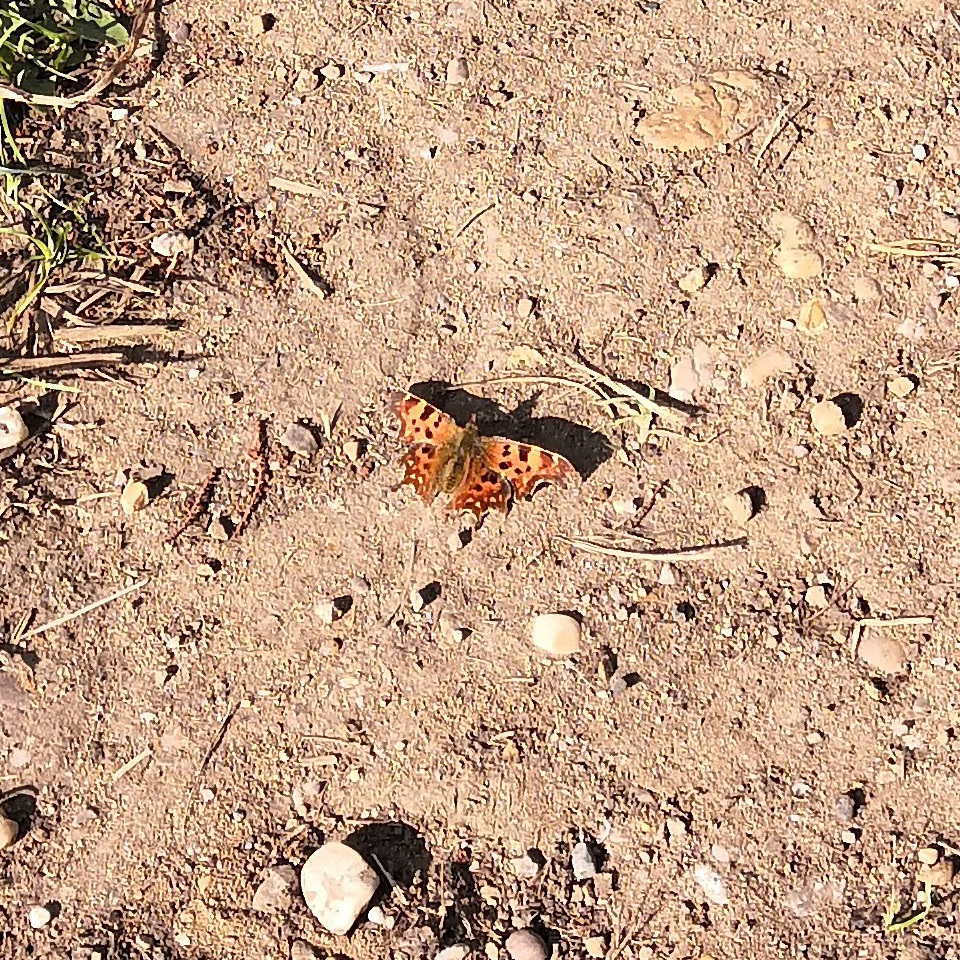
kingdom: Animalia
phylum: Arthropoda
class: Insecta
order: Lepidoptera
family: Nymphalidae
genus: Polygonia
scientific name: Polygonia c-album
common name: Comma
